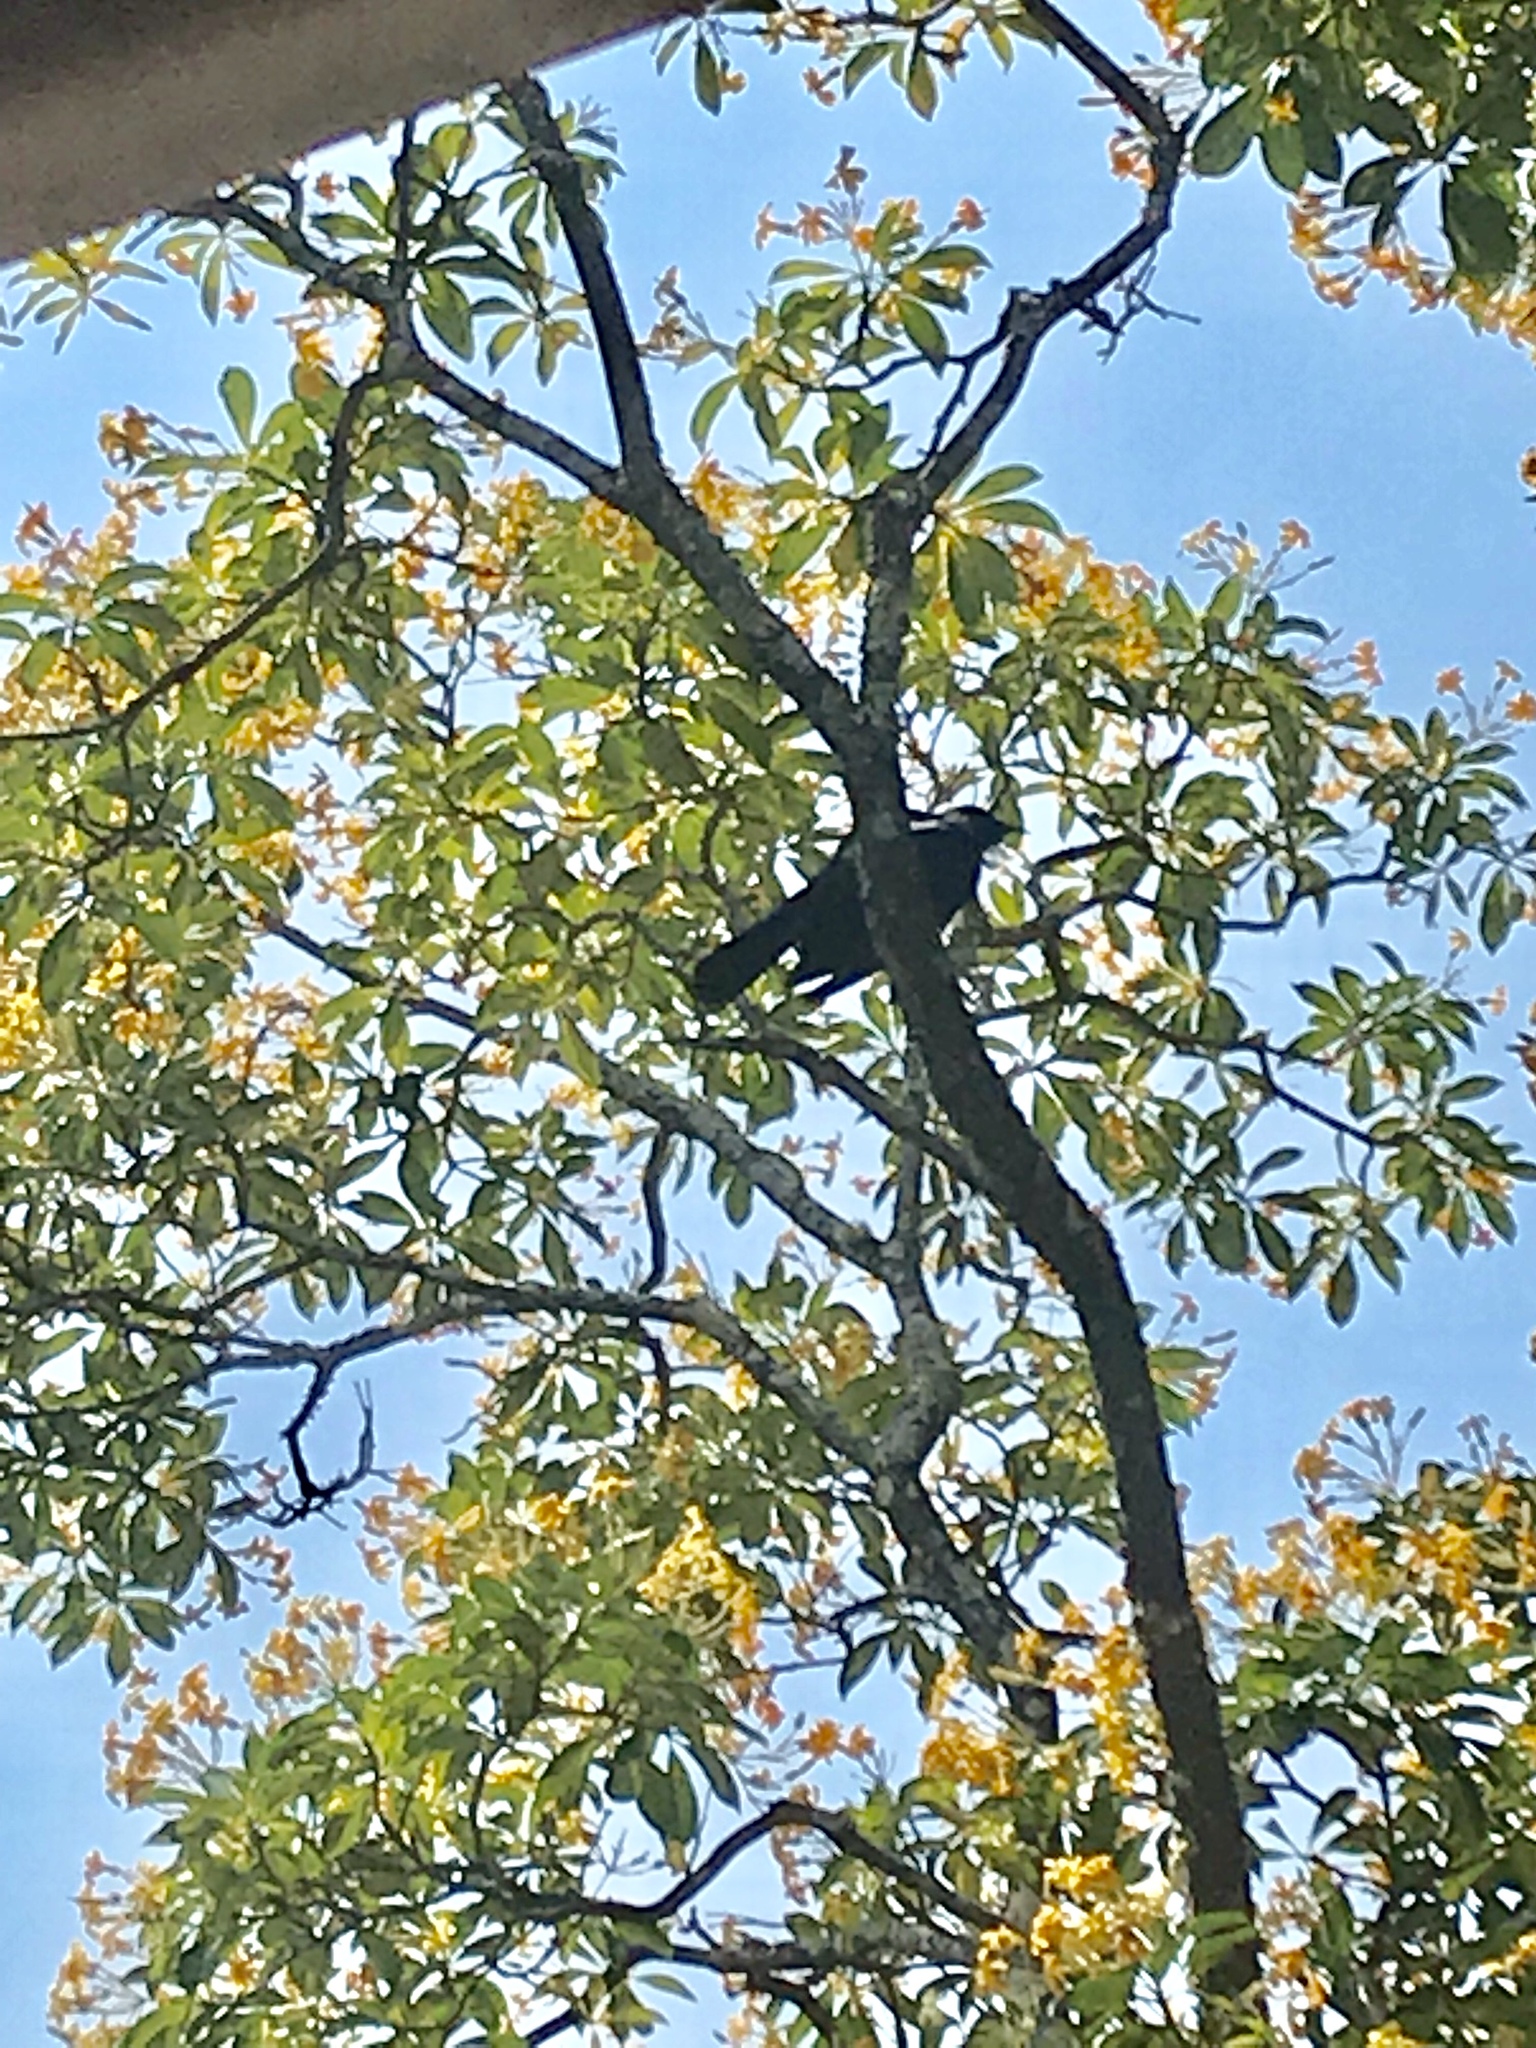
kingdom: Animalia
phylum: Chordata
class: Aves
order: Passeriformes
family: Meliphagidae
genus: Prosthemadera
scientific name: Prosthemadera novaeseelandiae
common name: Tui
